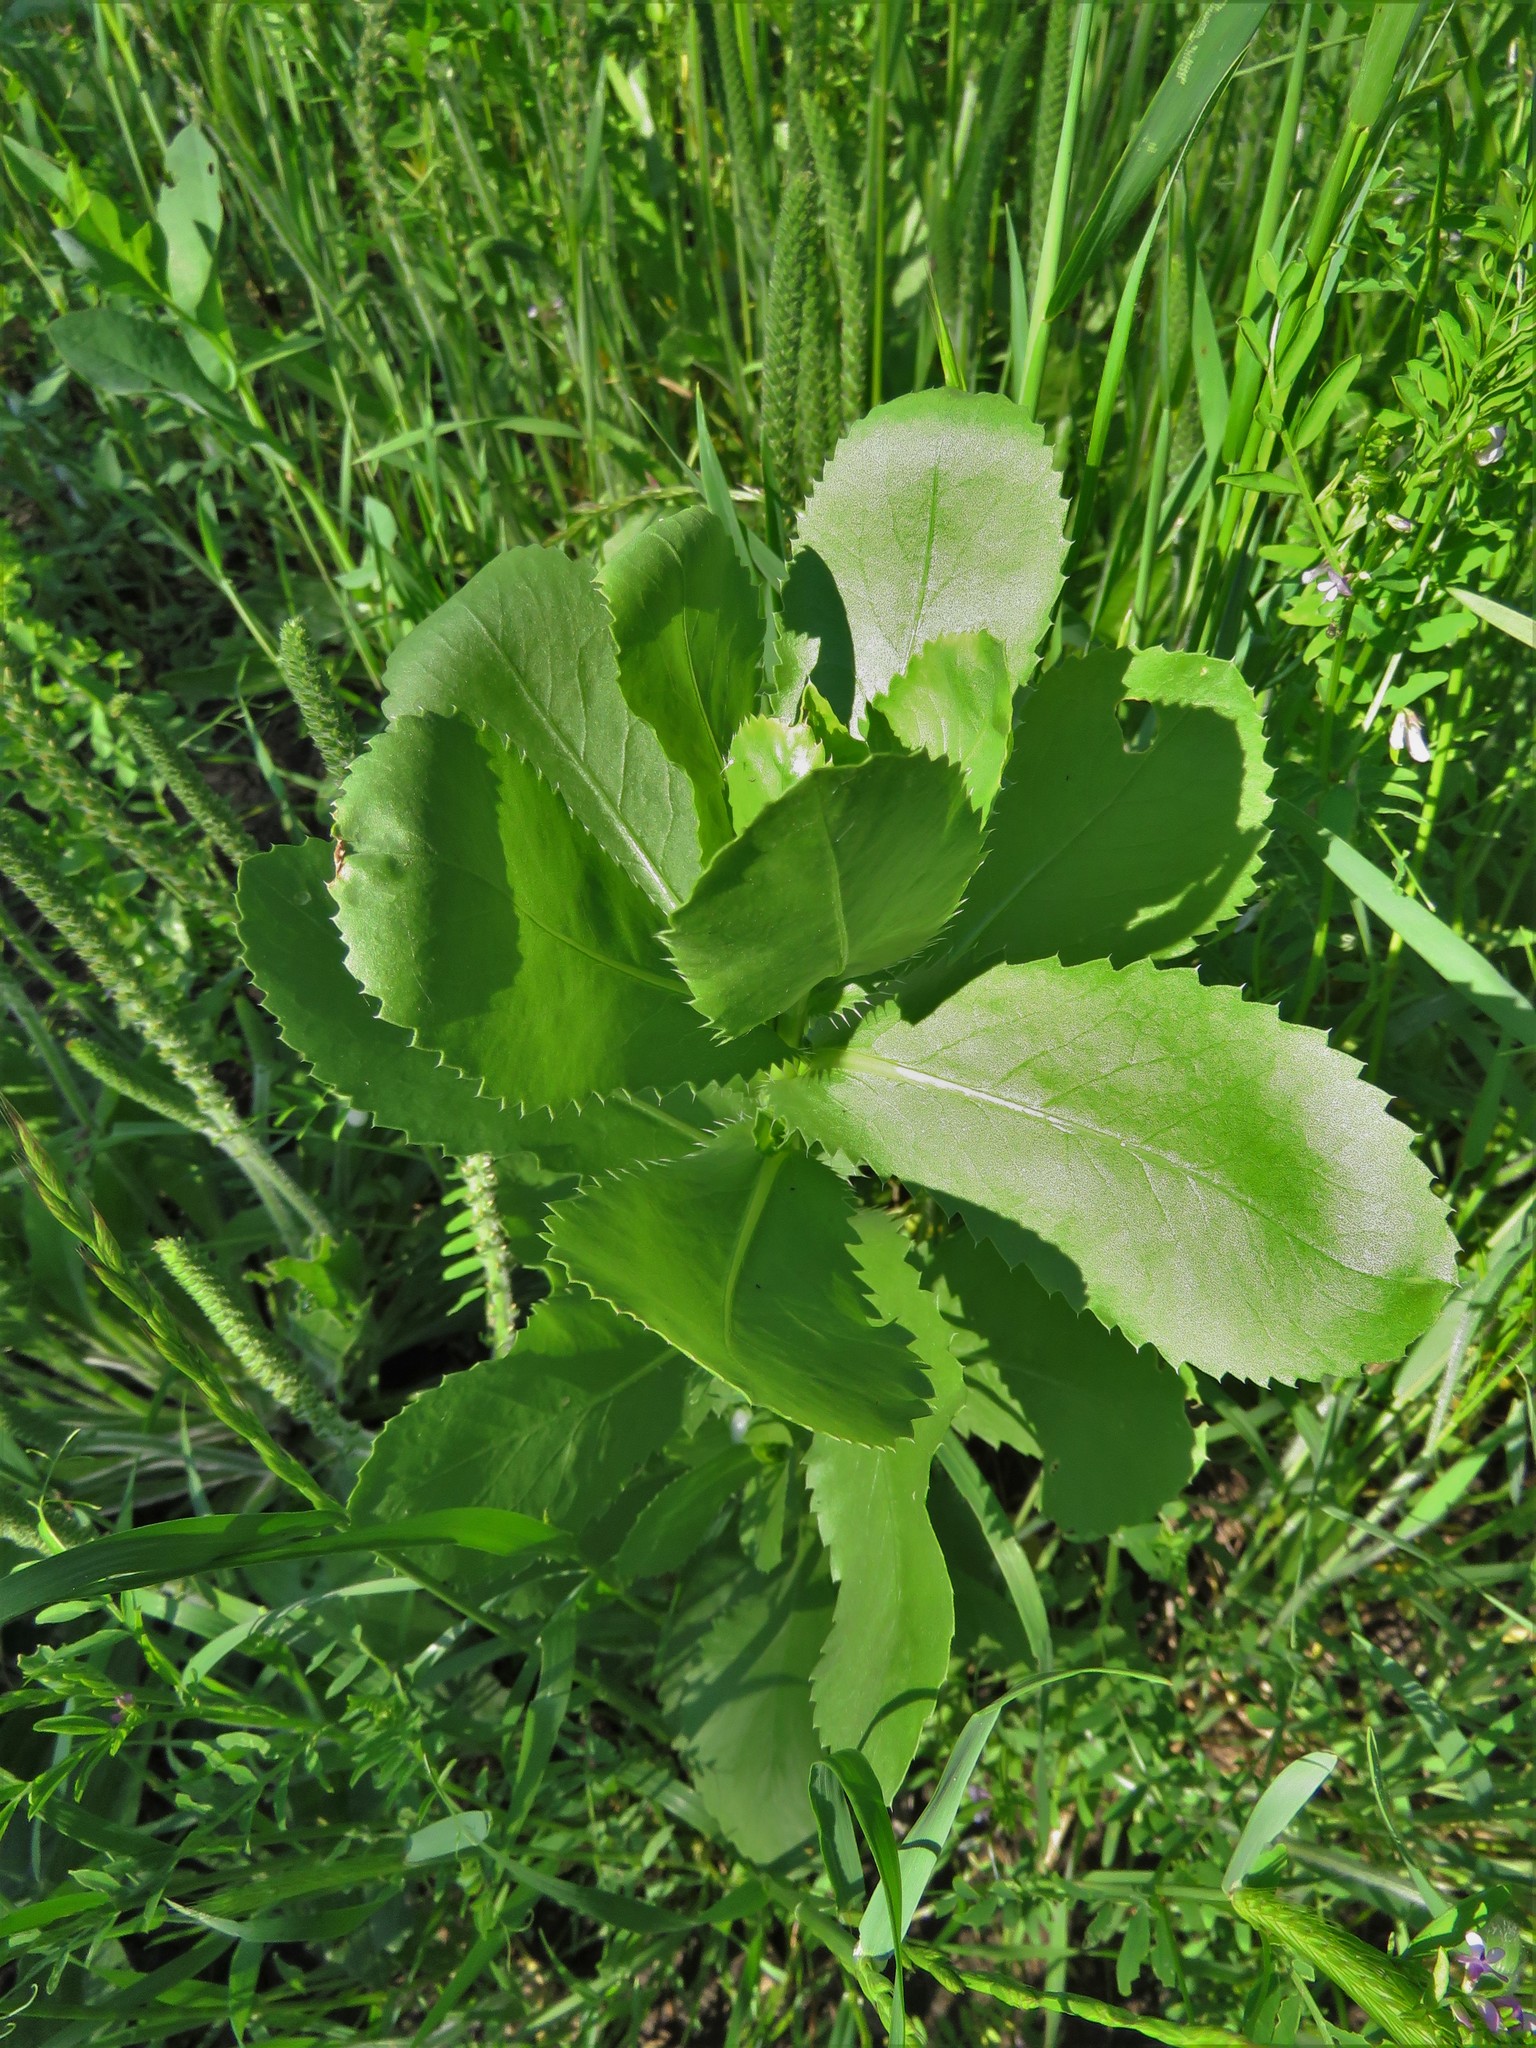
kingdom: Plantae
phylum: Tracheophyta
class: Magnoliopsida
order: Asterales
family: Asteraceae
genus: Grindelia
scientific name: Grindelia ciliata
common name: Goldenweed
